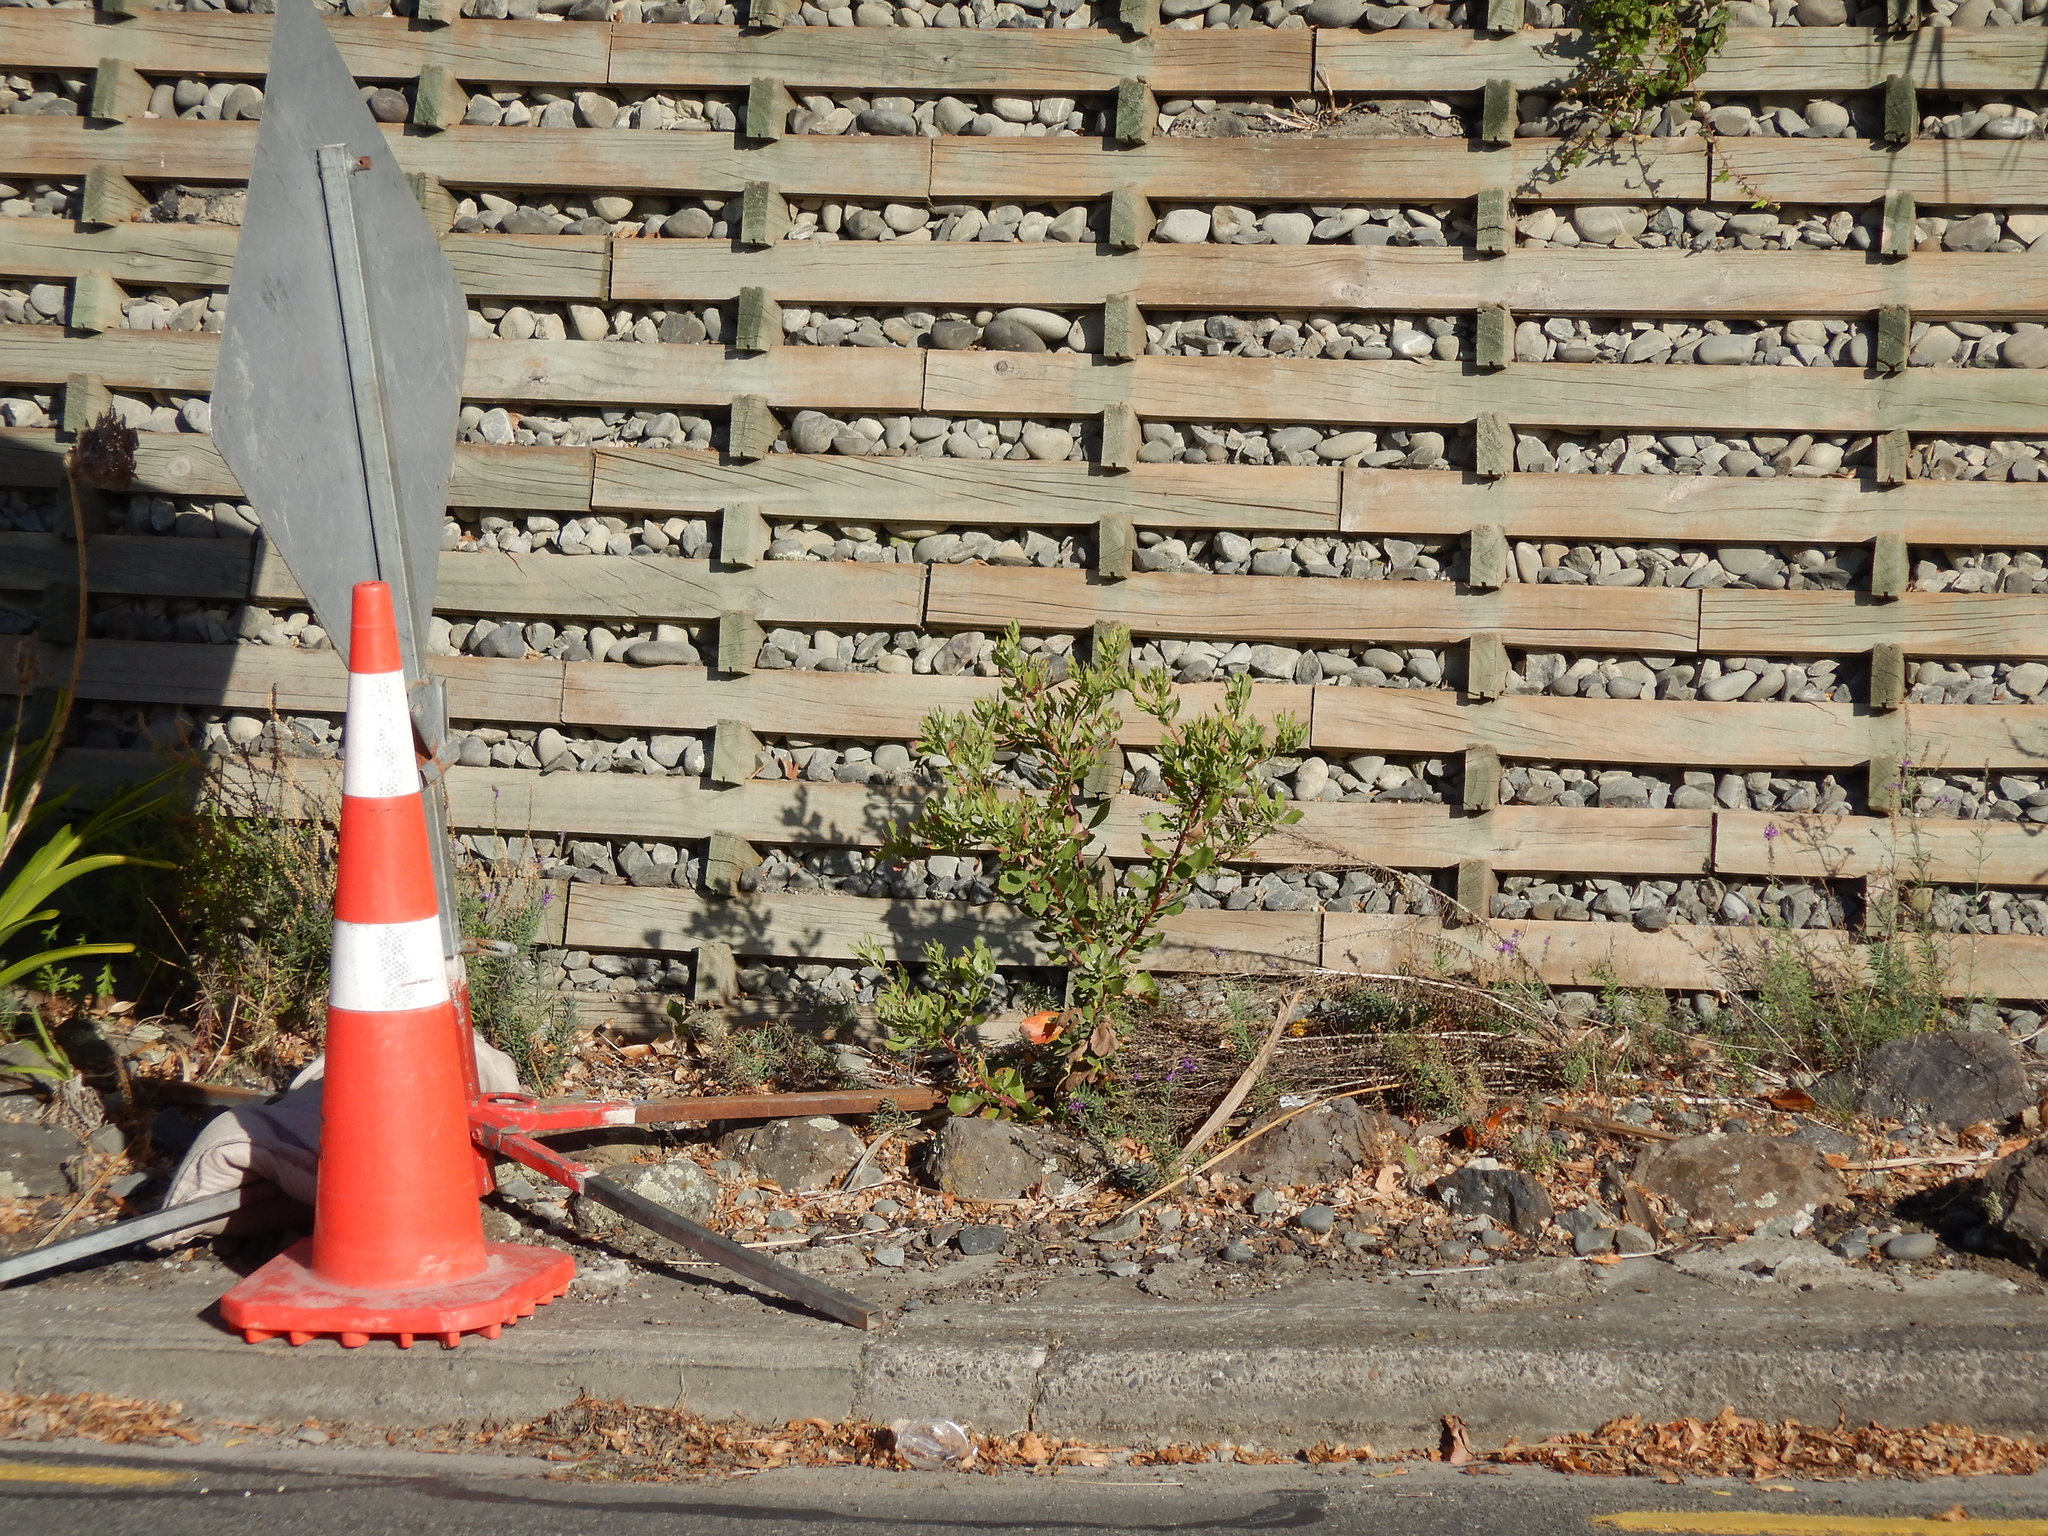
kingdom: Plantae
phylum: Tracheophyta
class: Magnoliopsida
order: Asterales
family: Asteraceae
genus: Osteospermum
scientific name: Osteospermum moniliferum
